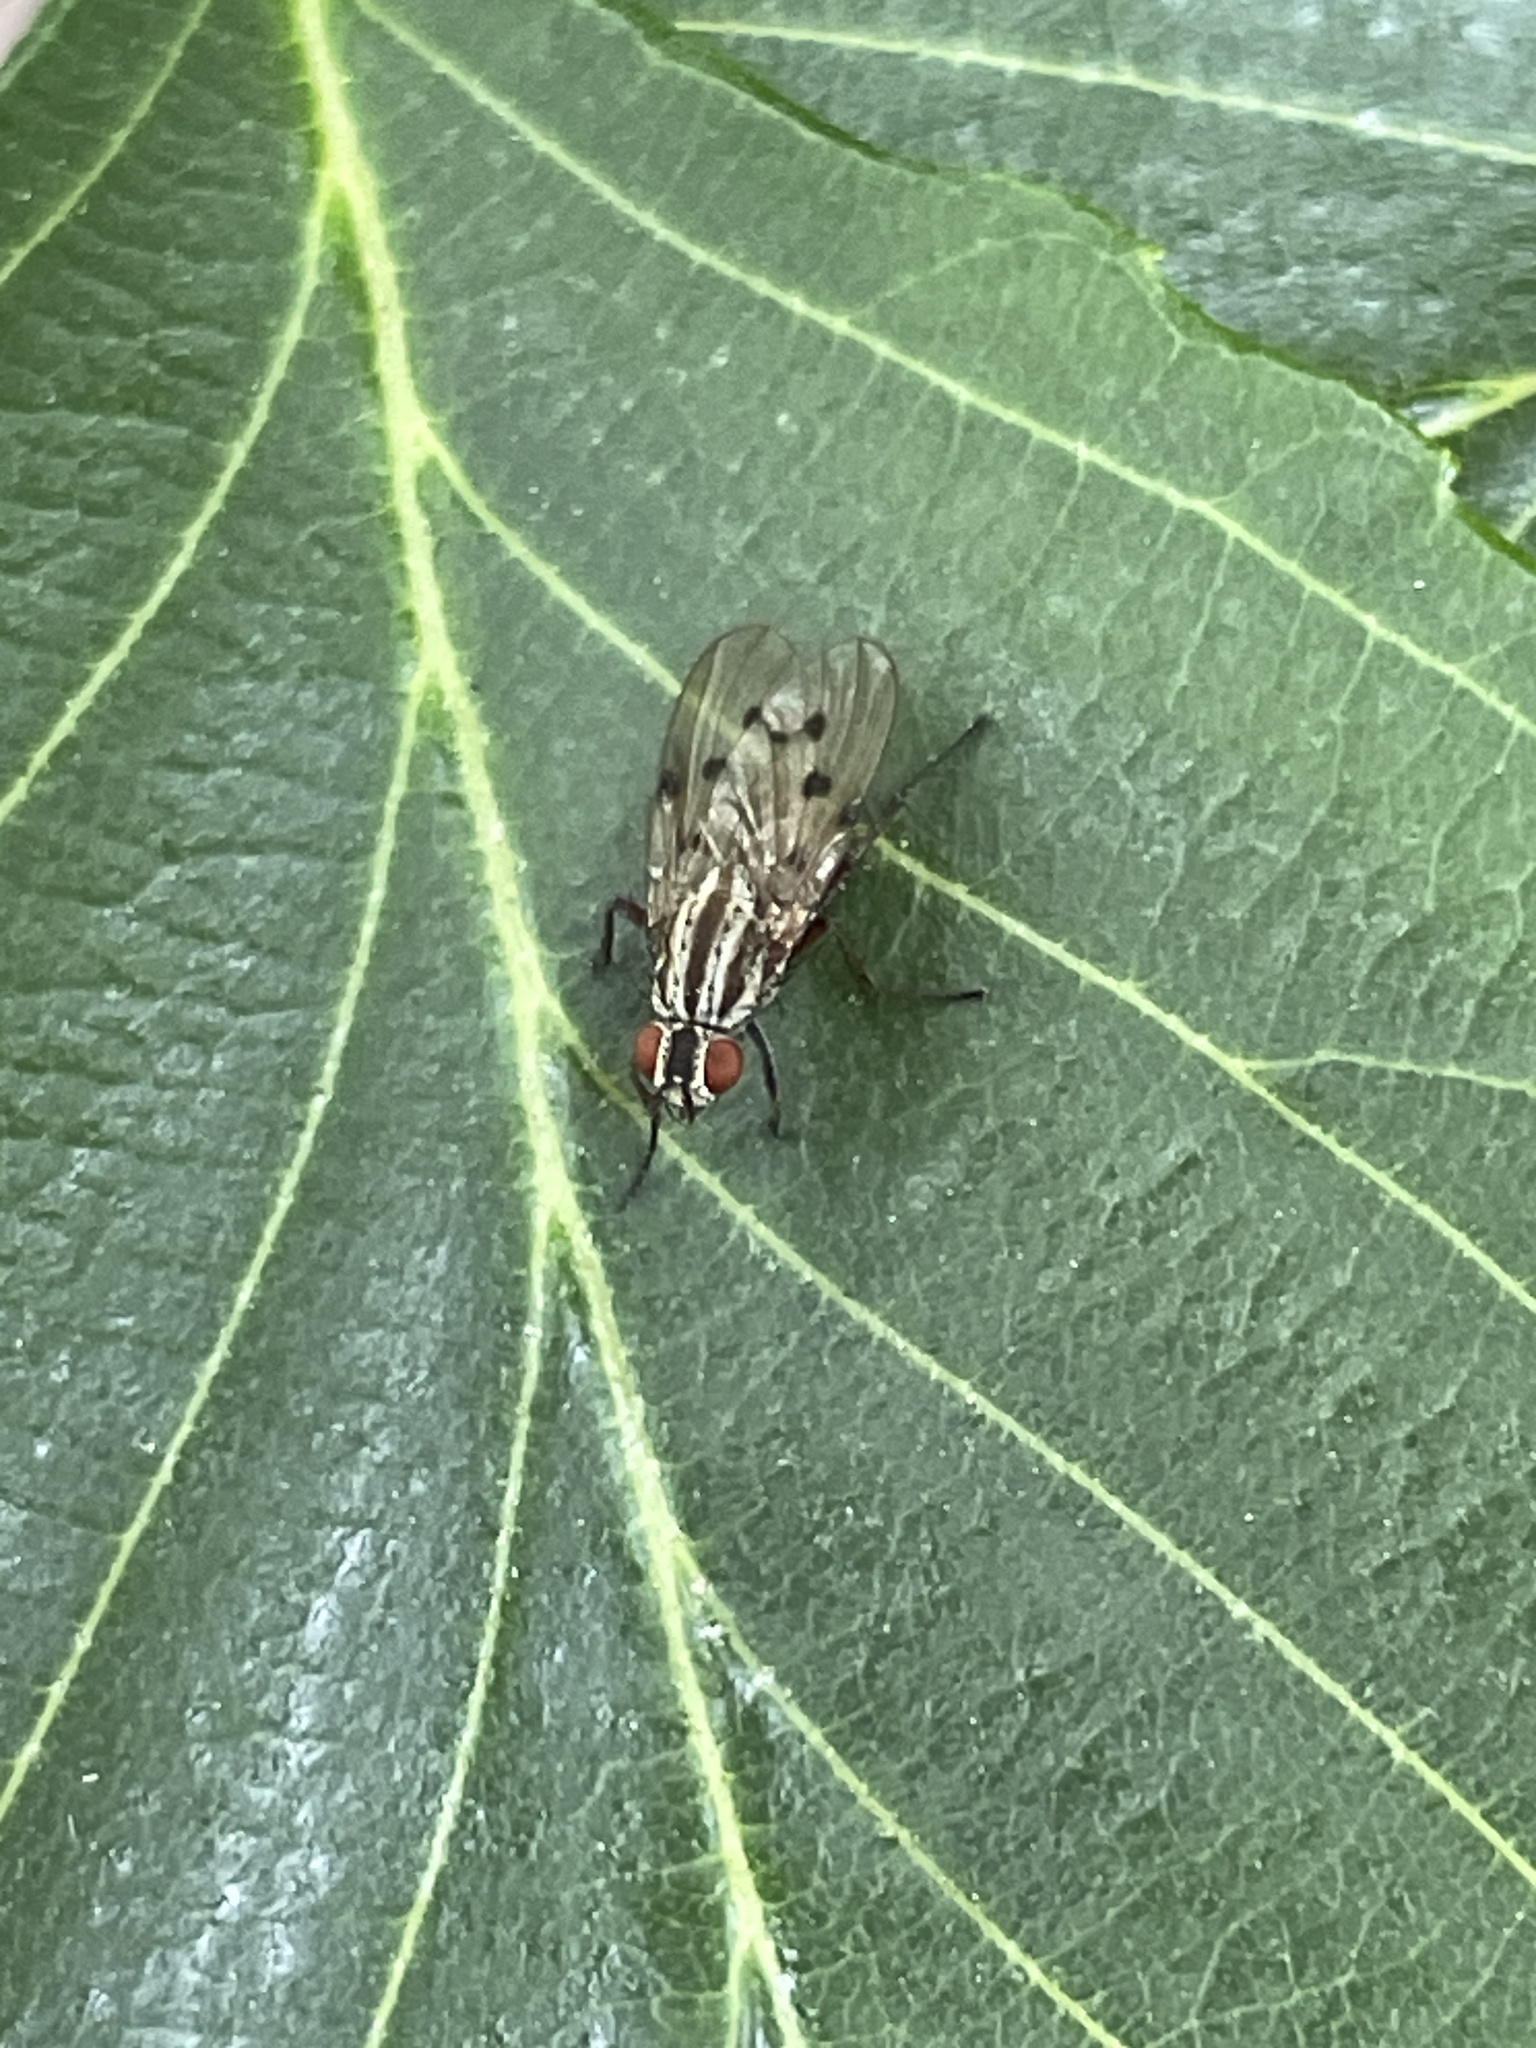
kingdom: Animalia
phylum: Arthropoda
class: Insecta
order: Diptera
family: Anthomyiidae
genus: Anthomyia
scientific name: Anthomyia punctipennis
